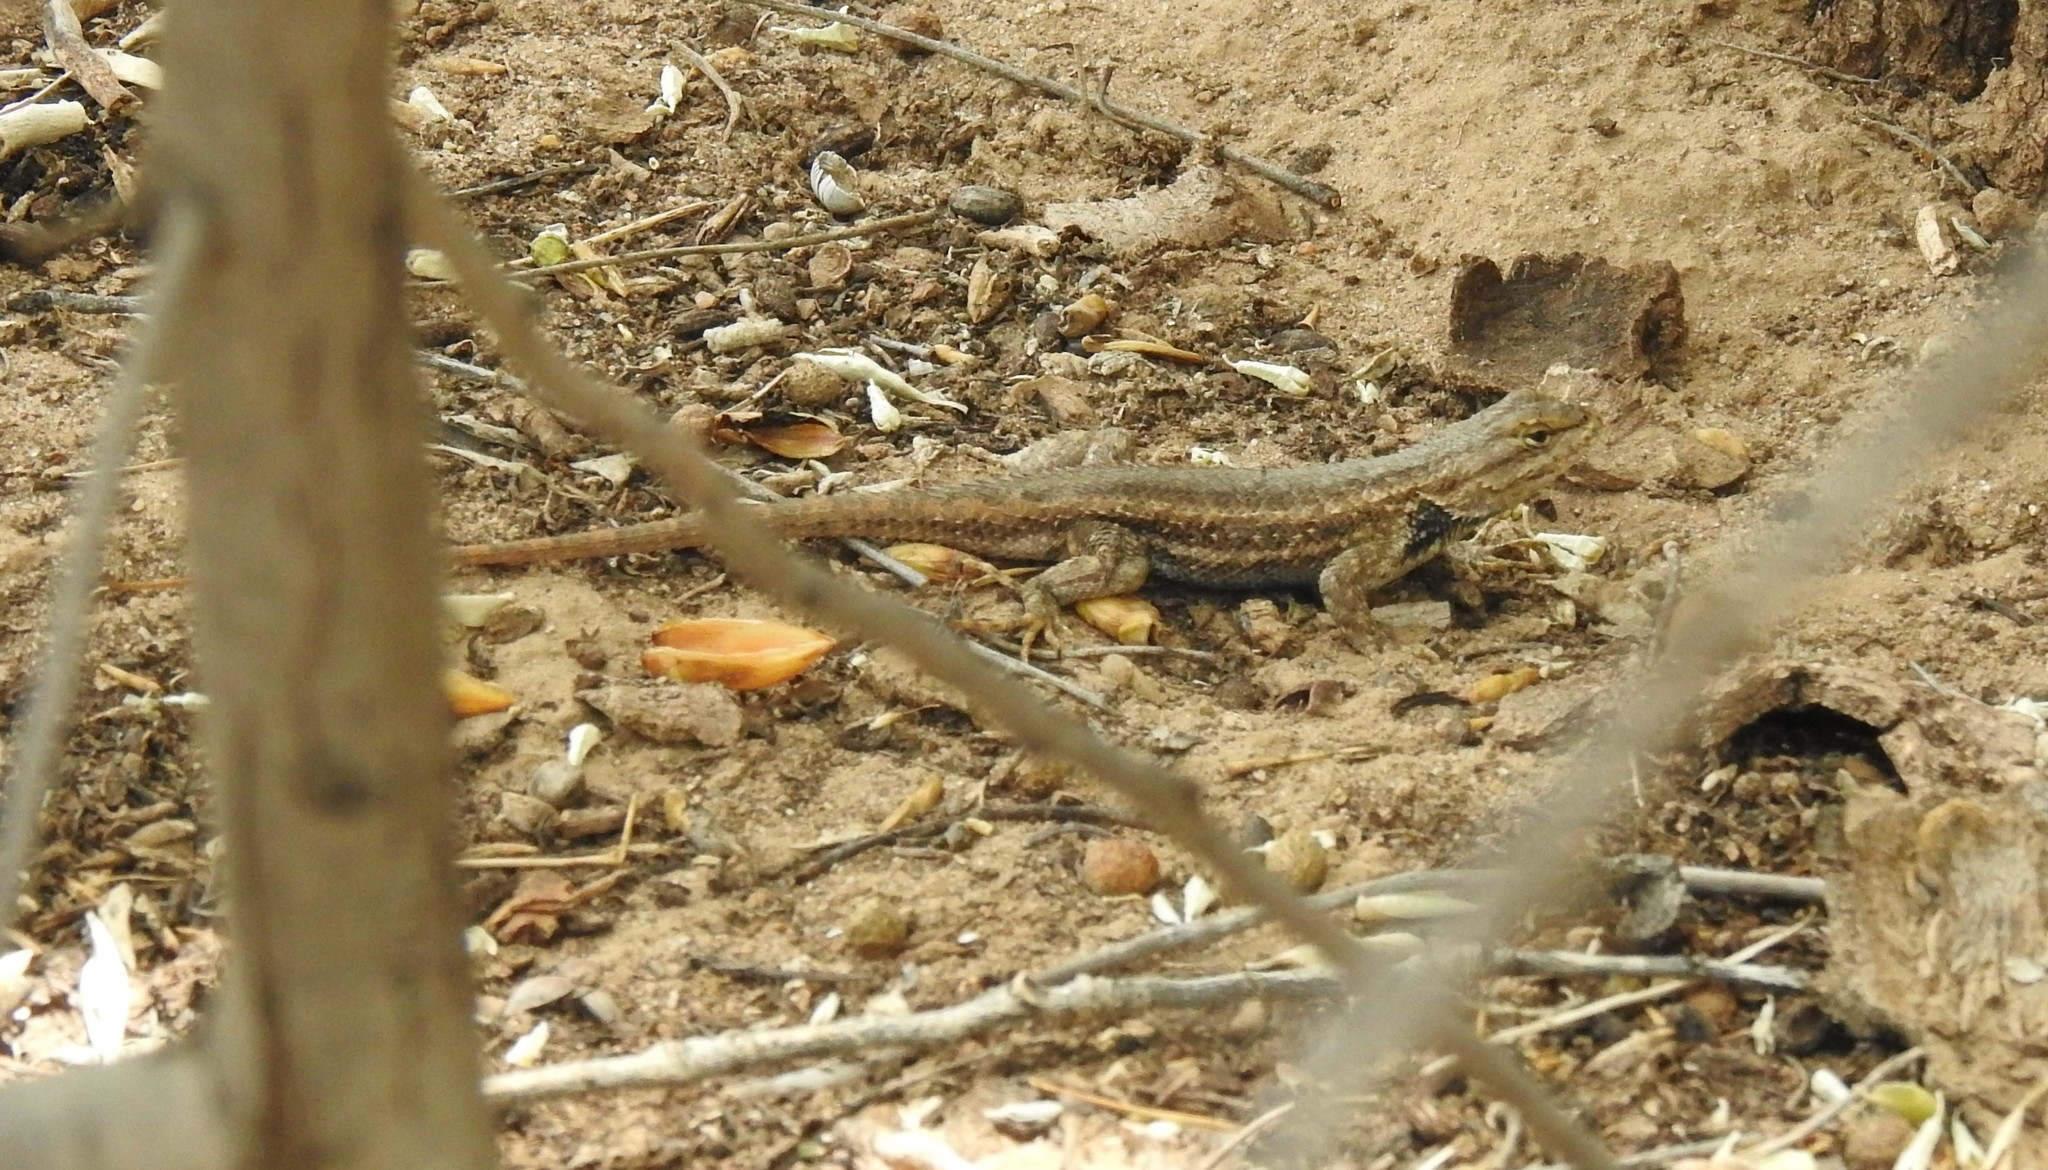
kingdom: Animalia
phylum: Chordata
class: Squamata
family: Phrynosomatidae
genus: Sceloporus
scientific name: Sceloporus cowlesi
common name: White sands prairie lizard
